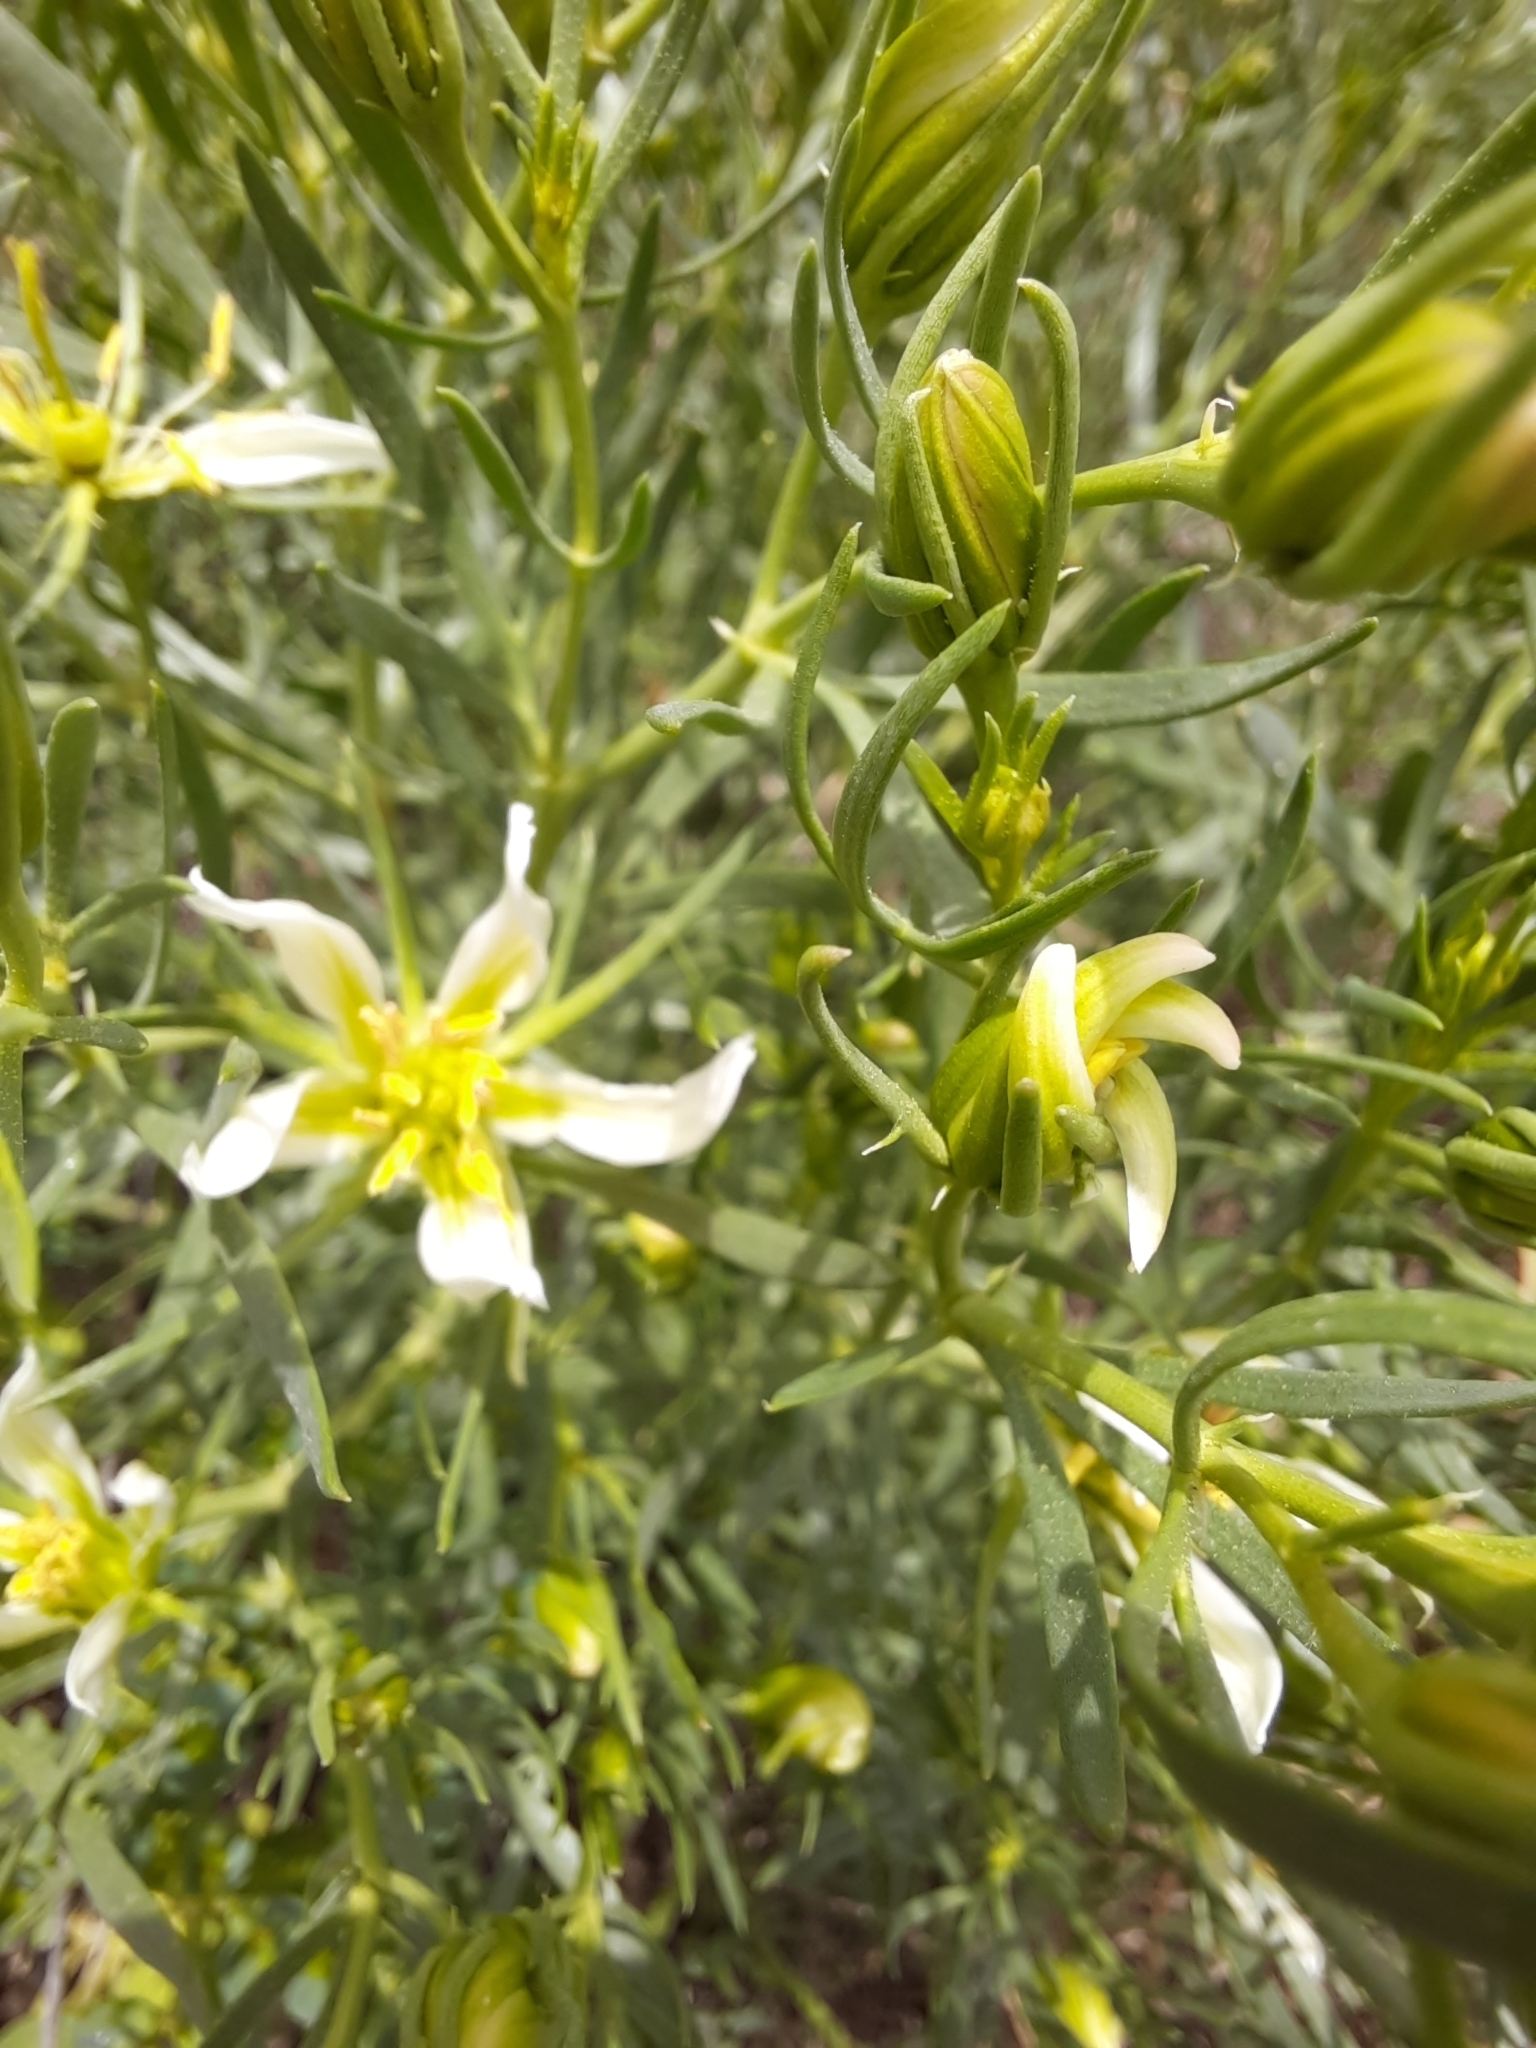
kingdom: Plantae
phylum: Tracheophyta
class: Magnoliopsida
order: Sapindales
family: Tetradiclidaceae
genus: Peganum
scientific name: Peganum harmala
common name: Harmal peganum
